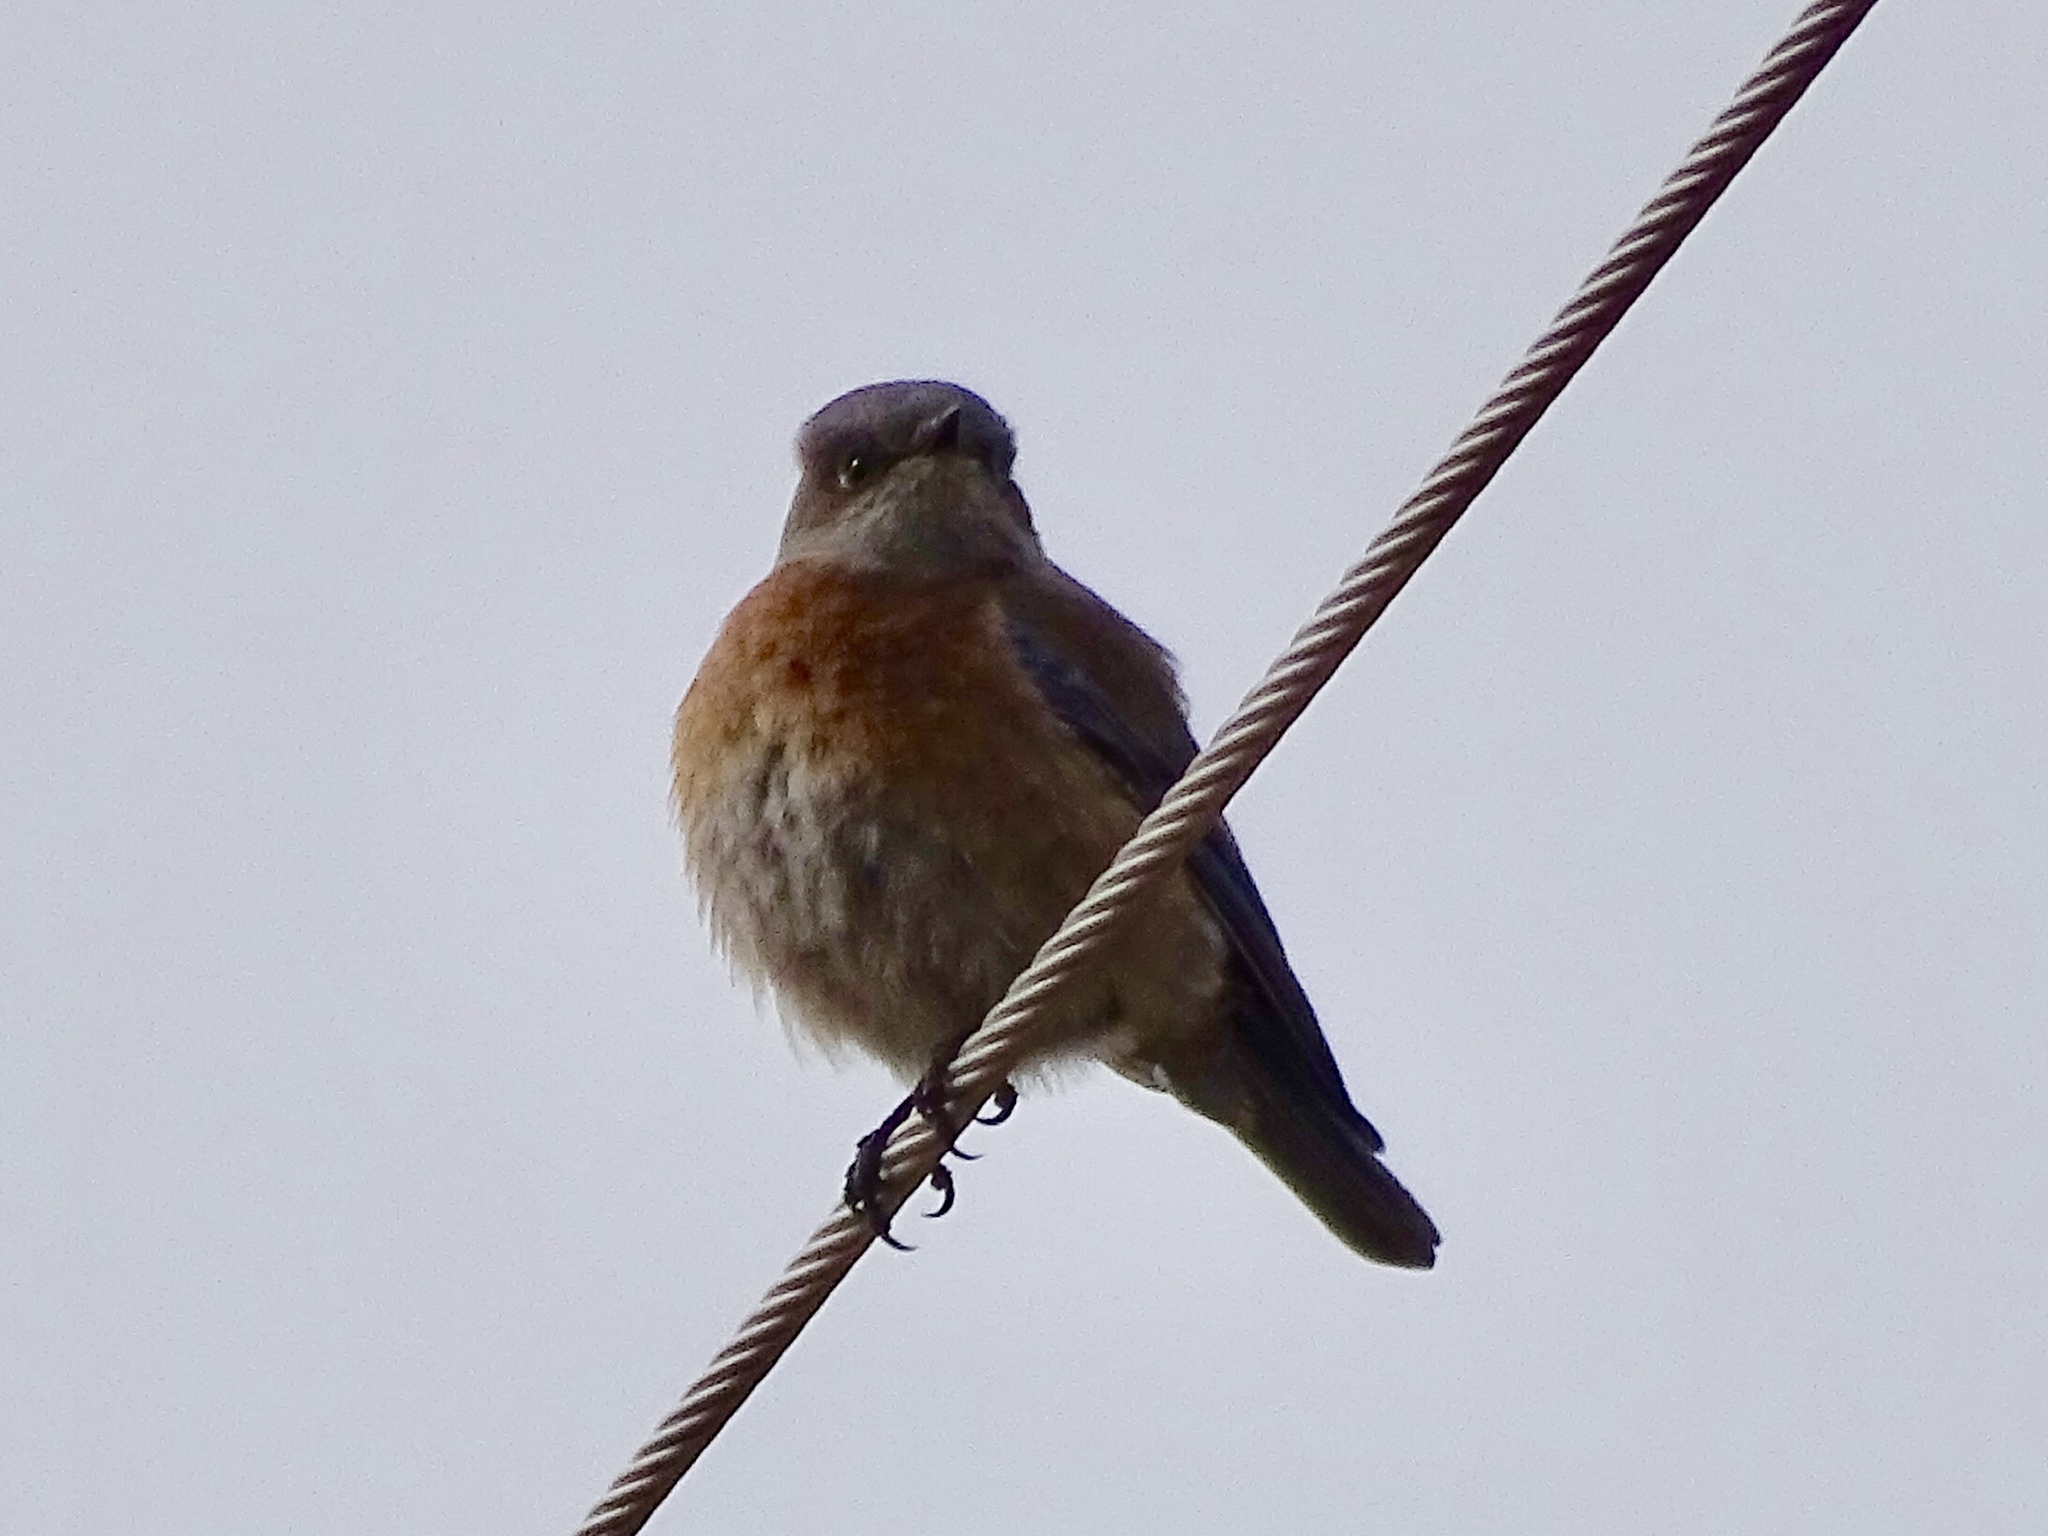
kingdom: Animalia
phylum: Chordata
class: Aves
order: Passeriformes
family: Turdidae
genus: Sialia
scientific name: Sialia mexicana
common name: Western bluebird
